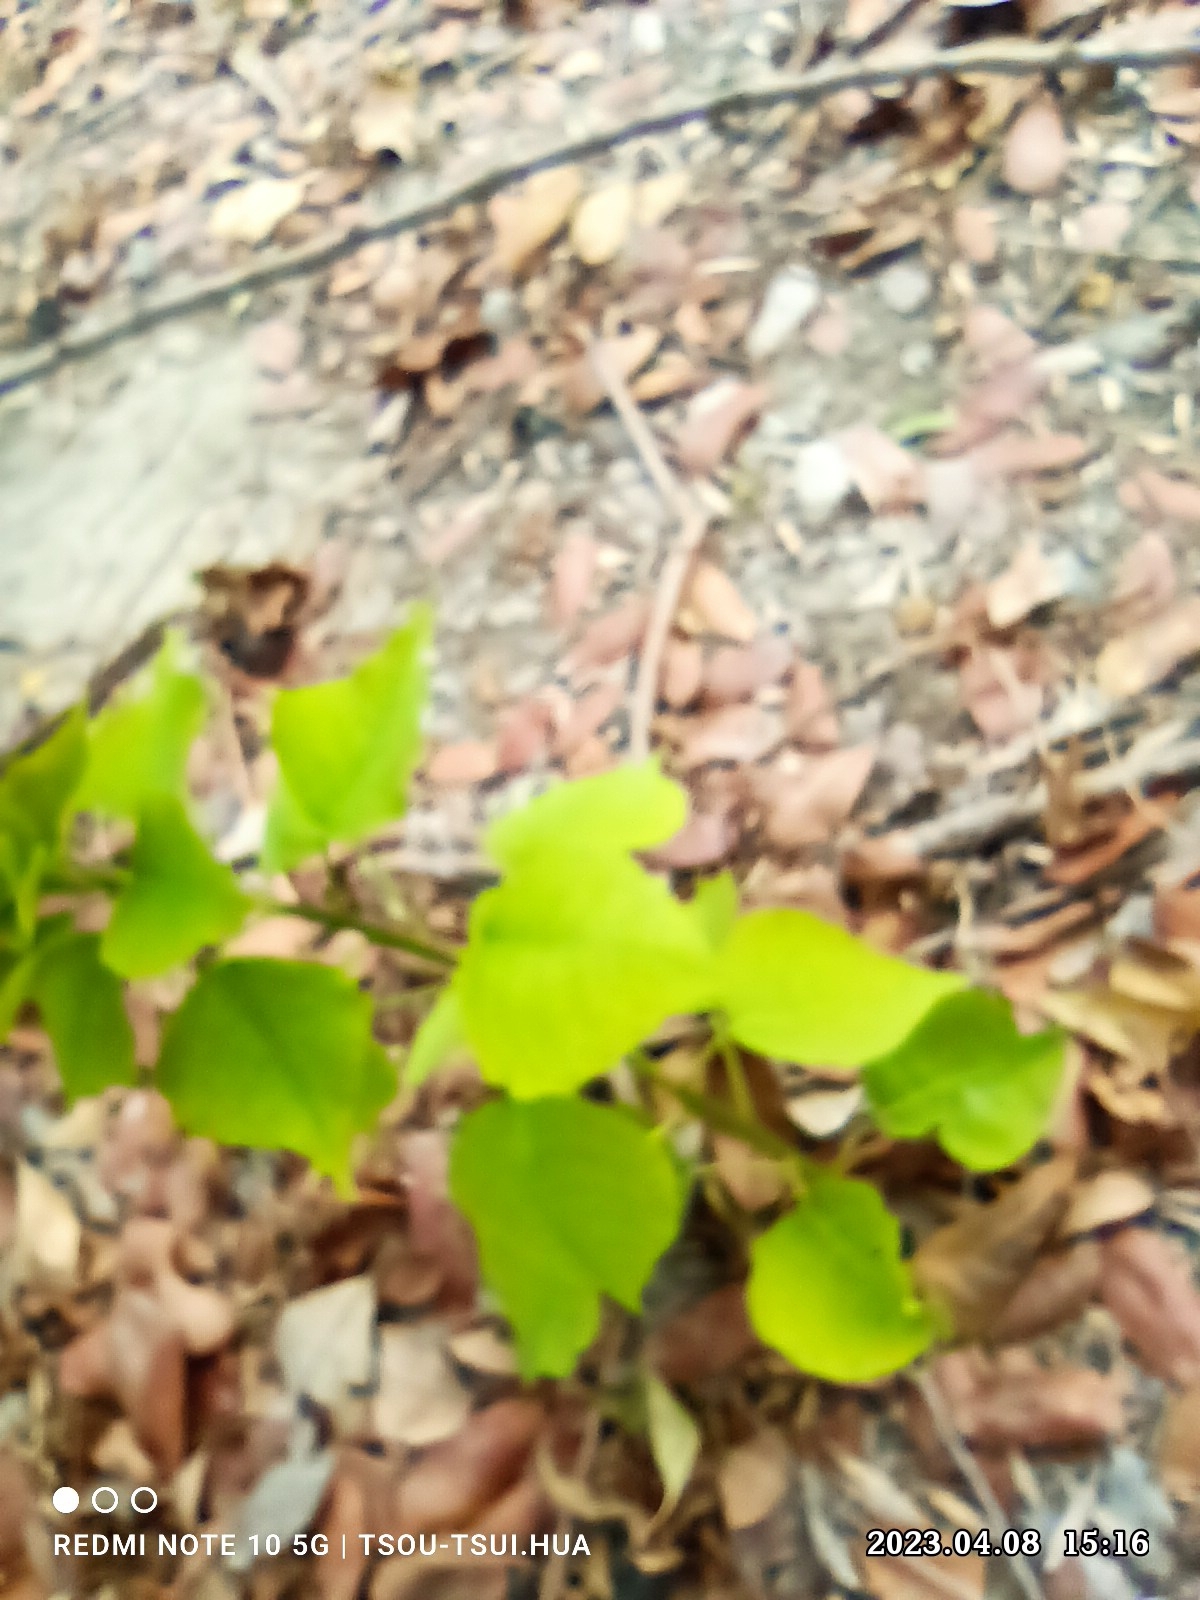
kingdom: Plantae
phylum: Tracheophyta
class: Magnoliopsida
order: Malpighiales
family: Euphorbiaceae
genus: Triadica
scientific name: Triadica sebifera
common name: Chinese tallow
